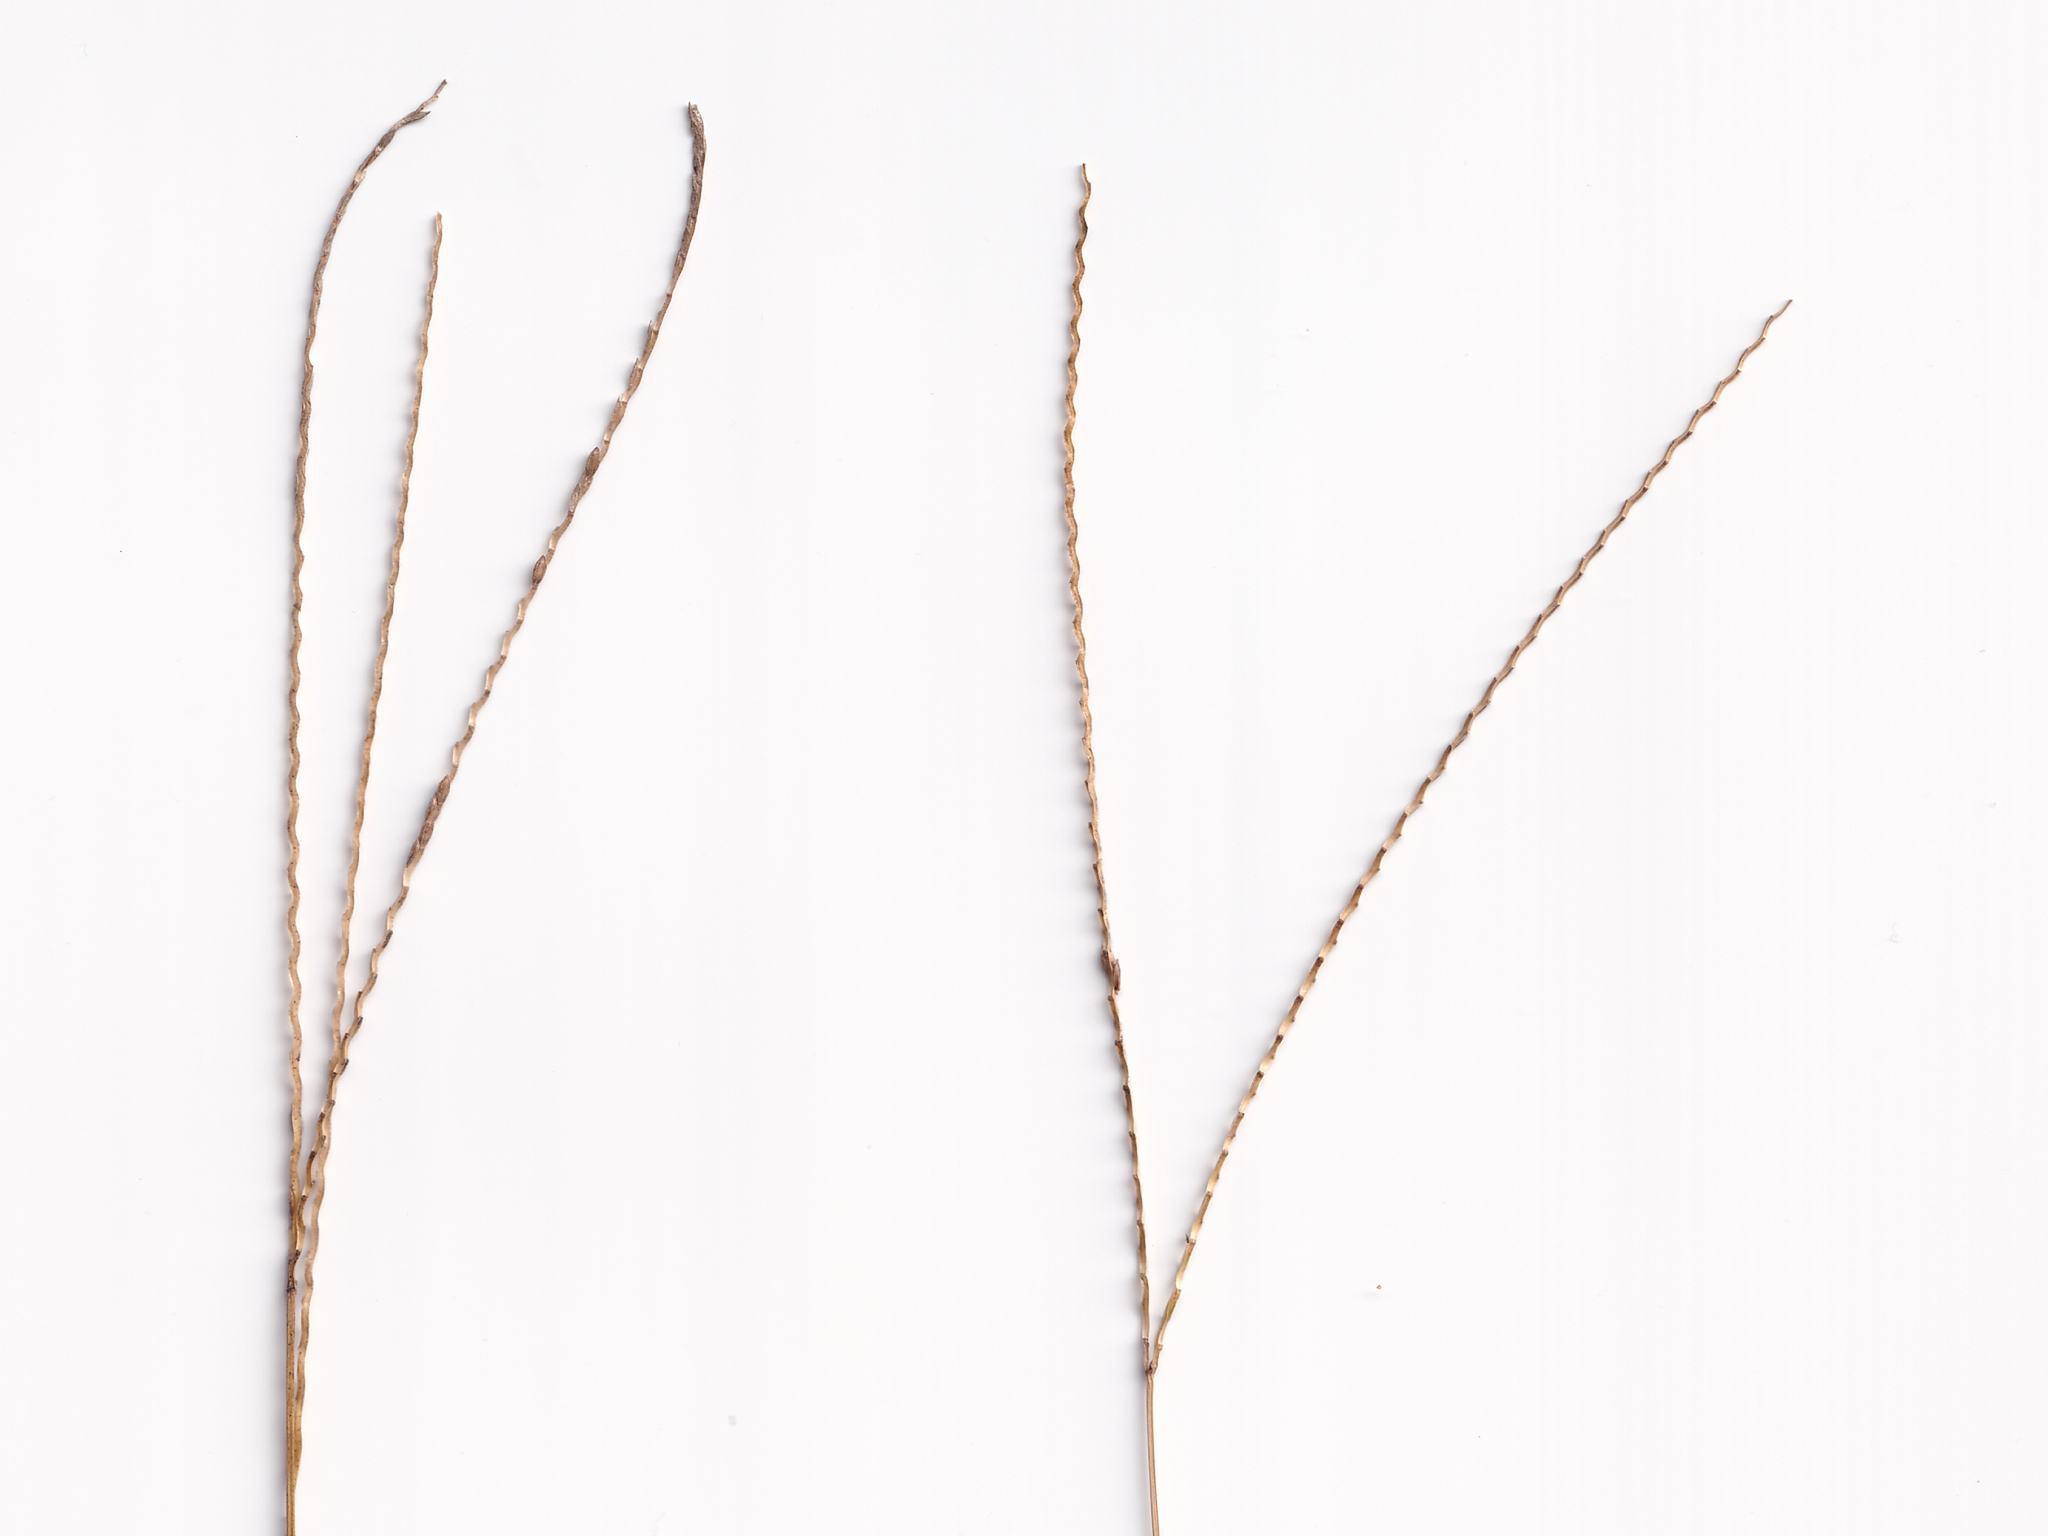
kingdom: Plantae
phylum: Tracheophyta
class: Liliopsida
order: Poales
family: Poaceae
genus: Axonopus
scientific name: Axonopus fissifolius
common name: Common carpetgrass
